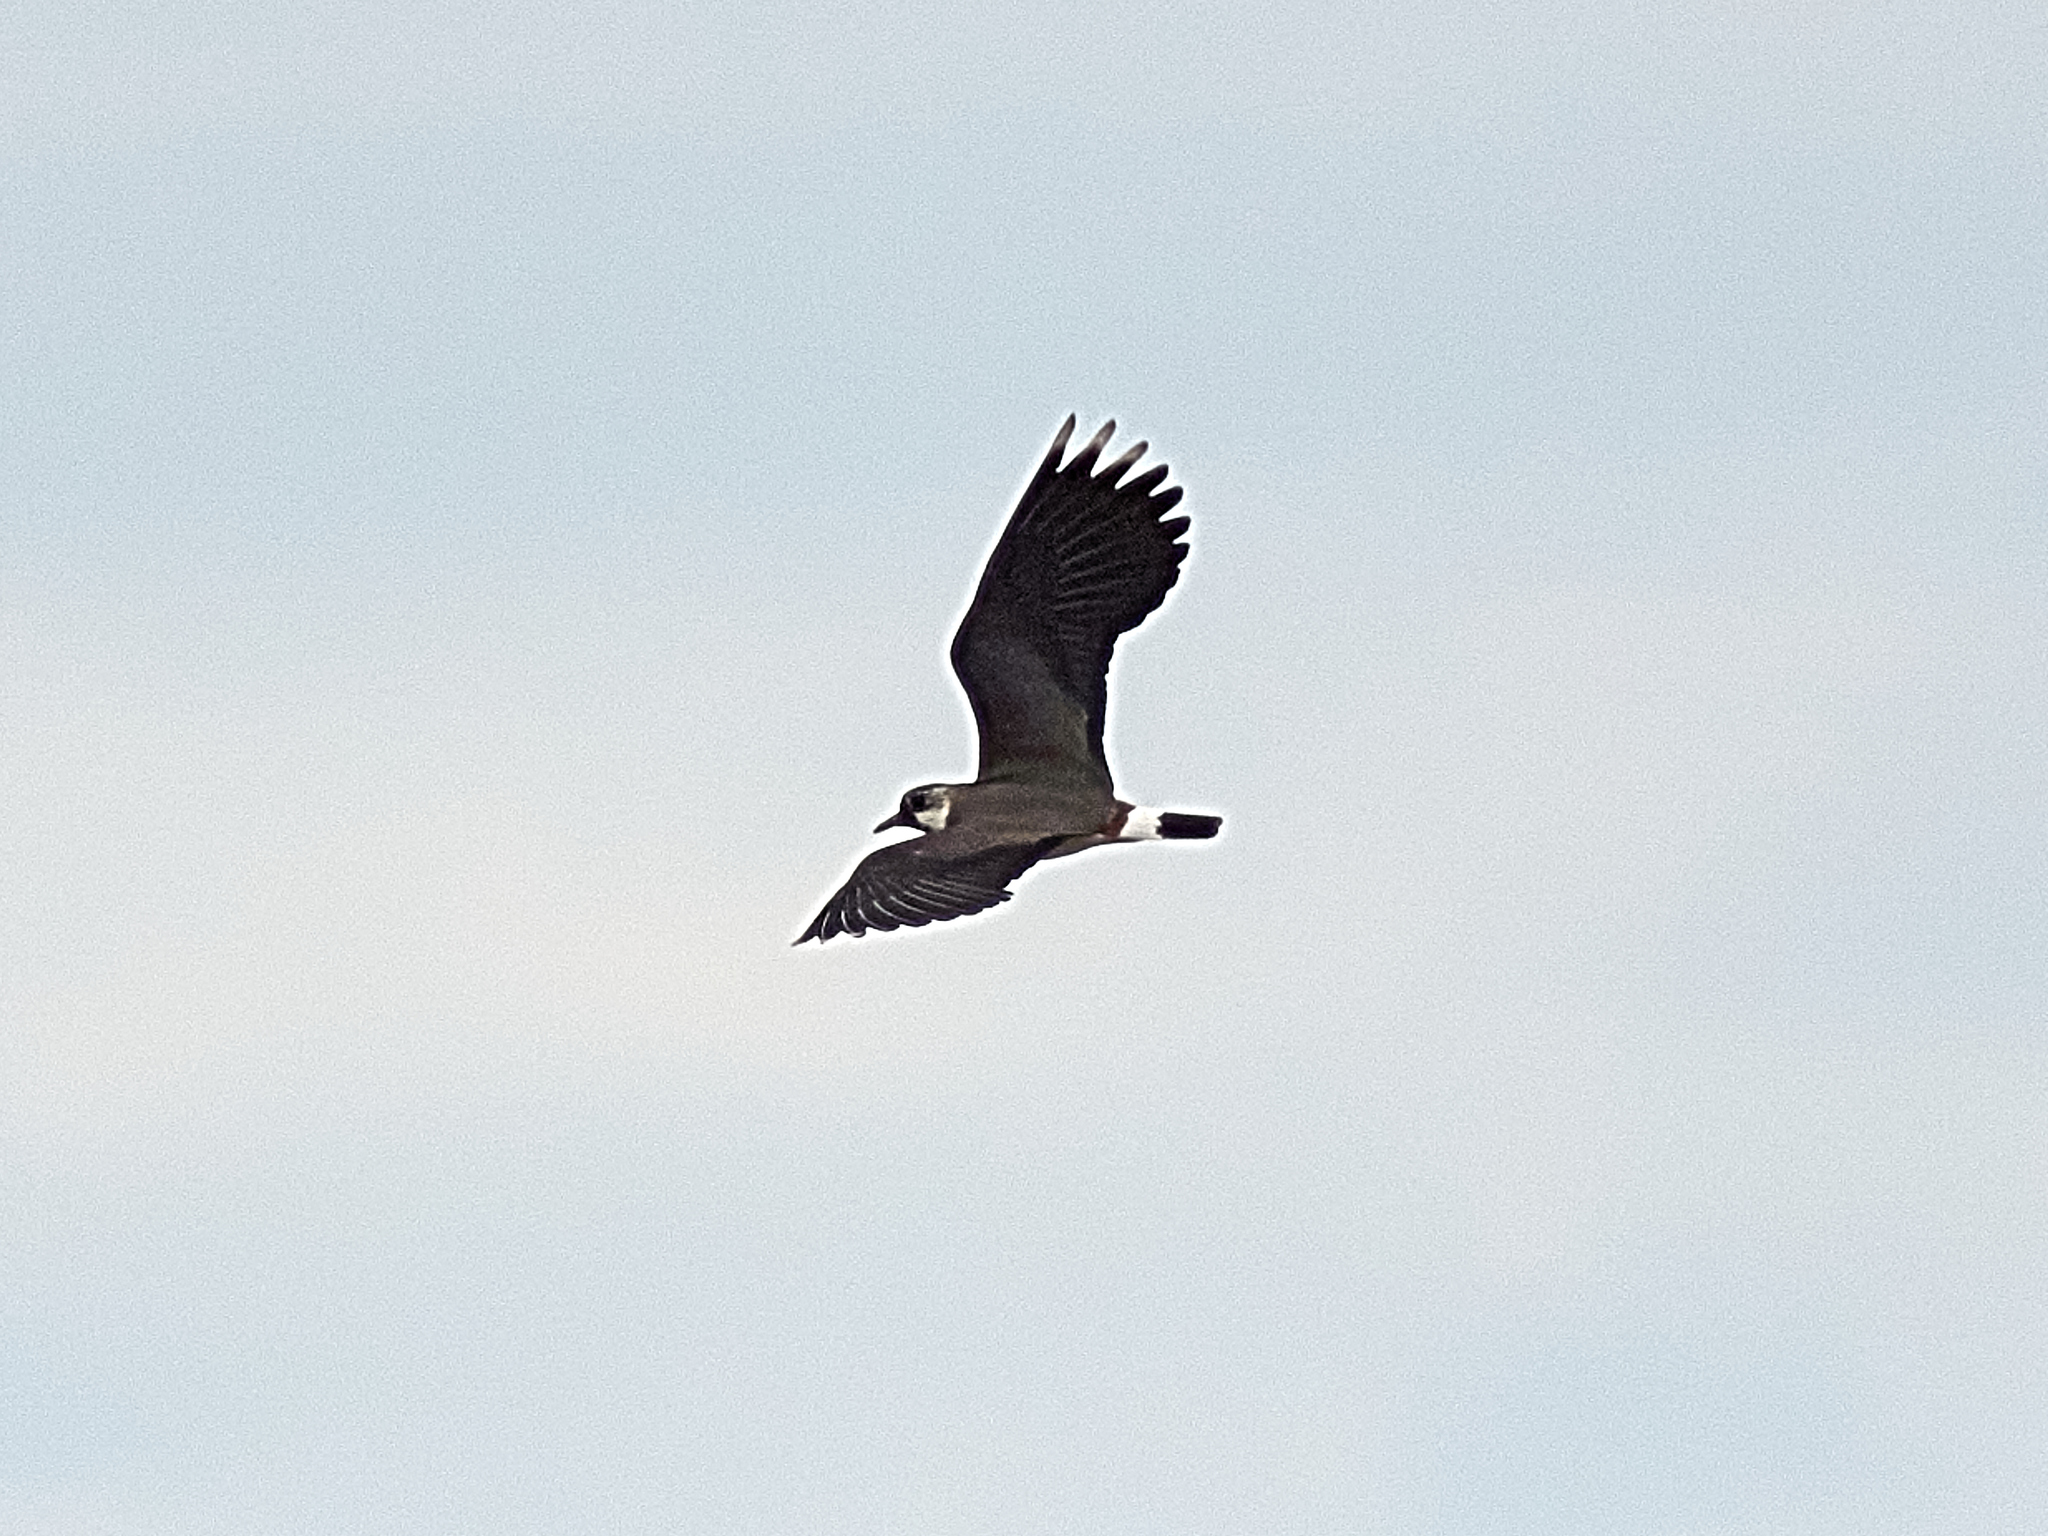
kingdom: Animalia
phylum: Chordata
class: Aves
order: Charadriiformes
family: Charadriidae
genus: Vanellus
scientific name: Vanellus vanellus
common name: Northern lapwing
